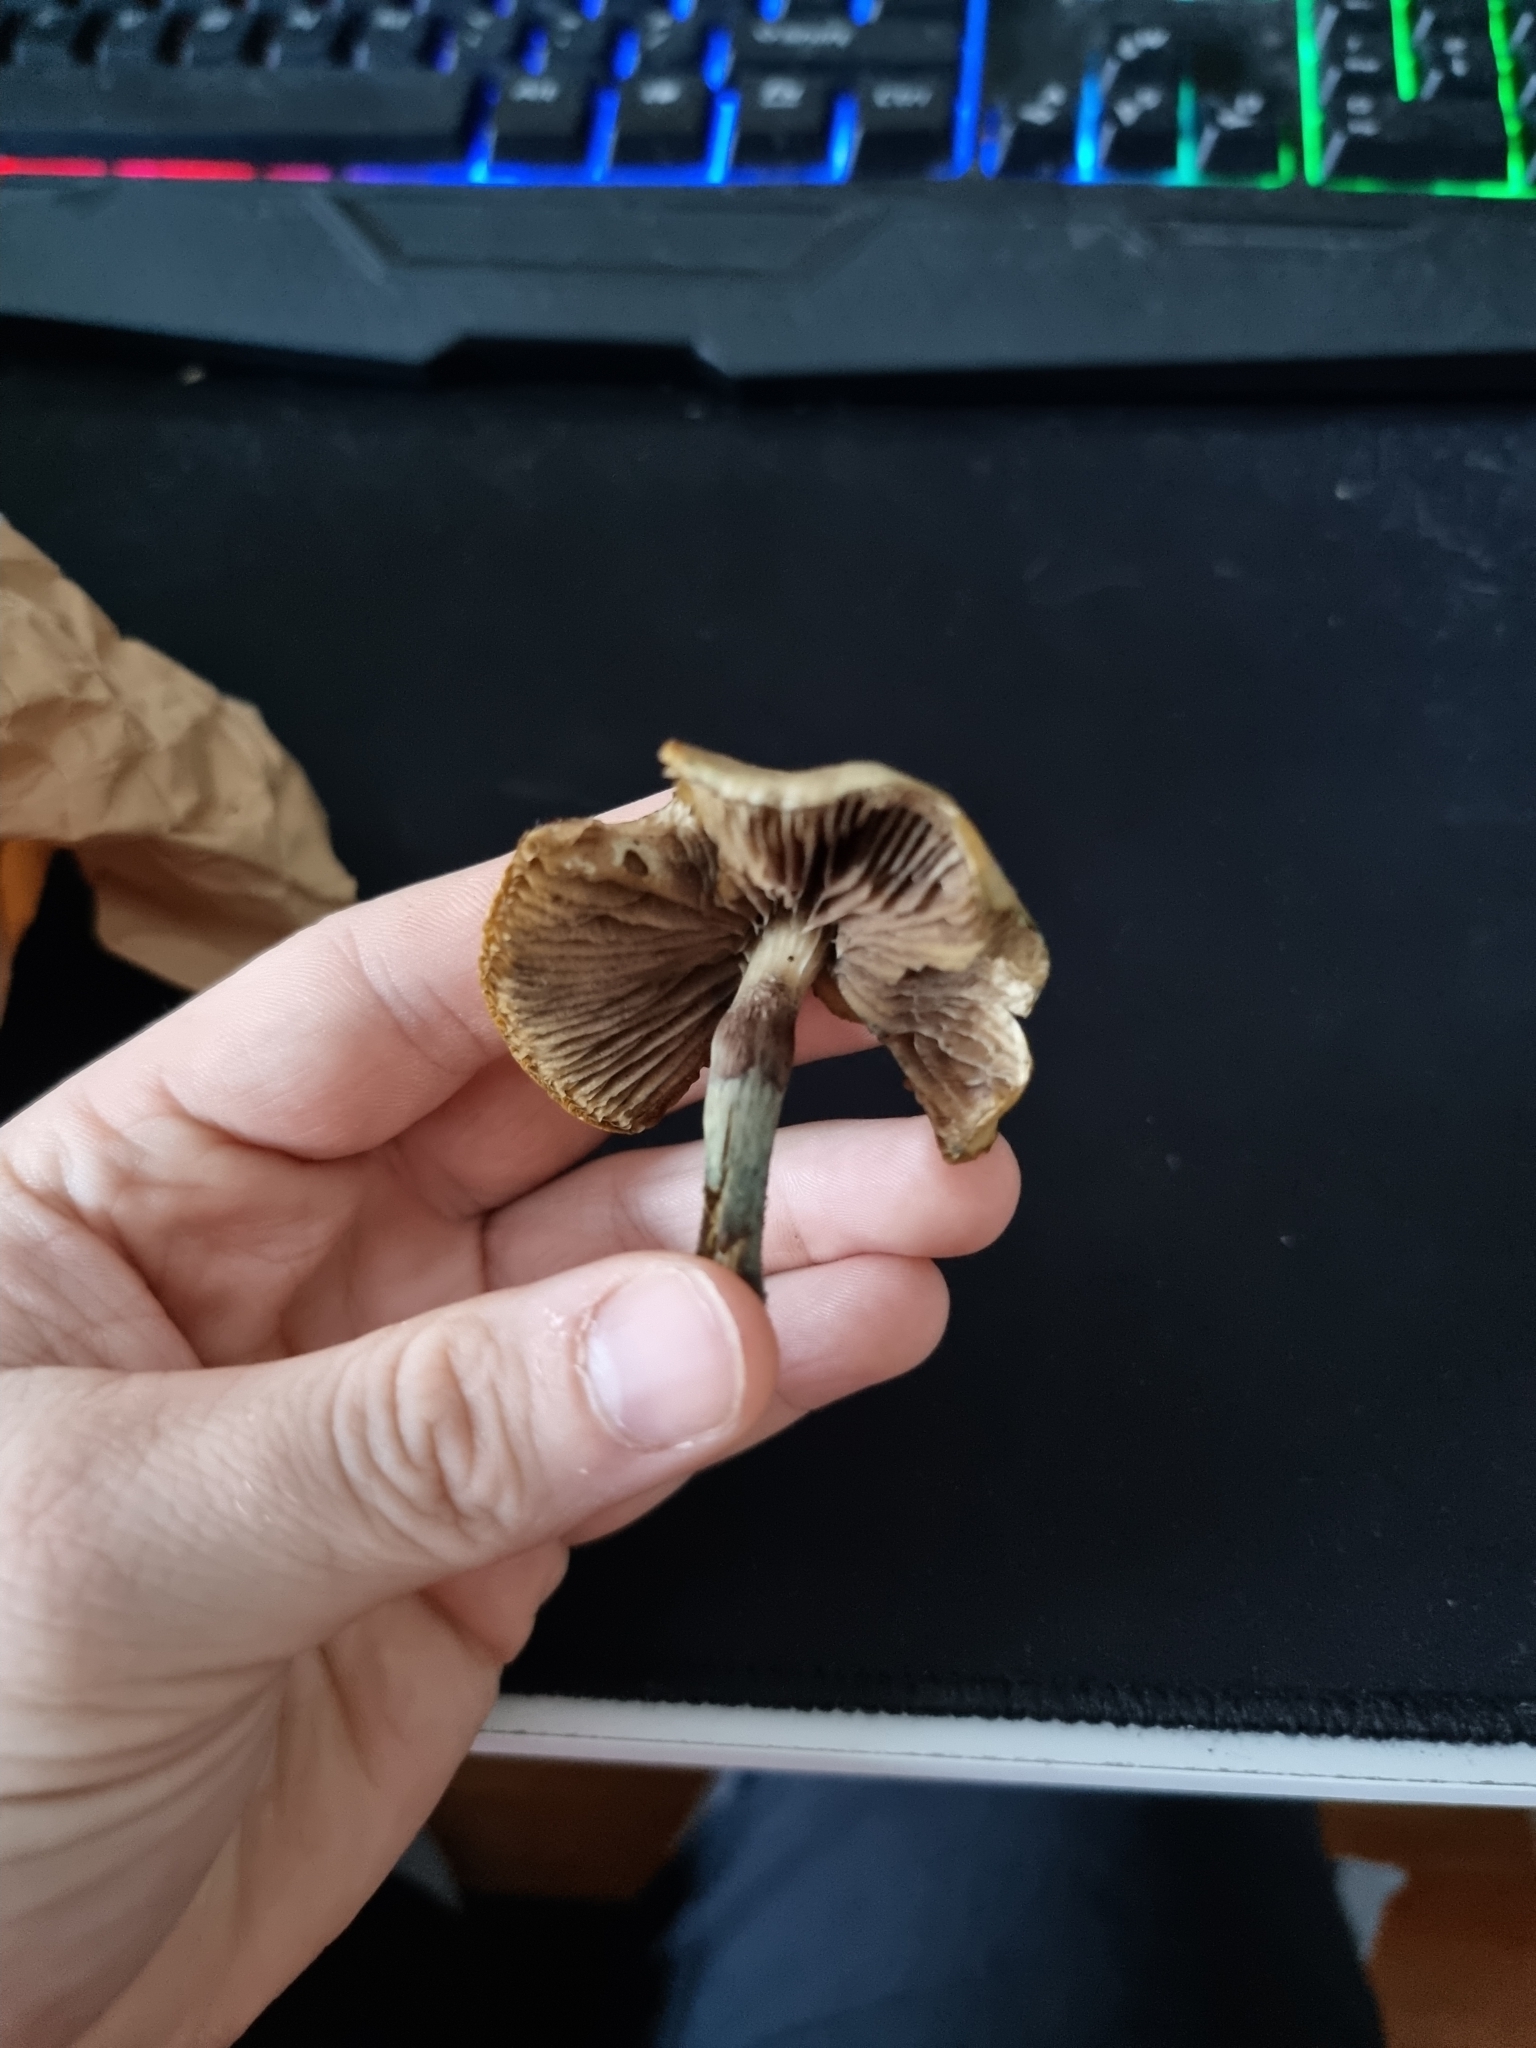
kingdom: Fungi
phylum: Basidiomycota
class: Agaricomycetes
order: Agaricales
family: Hymenogastraceae
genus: Psilocybe
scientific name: Psilocybe subaeruginosa
